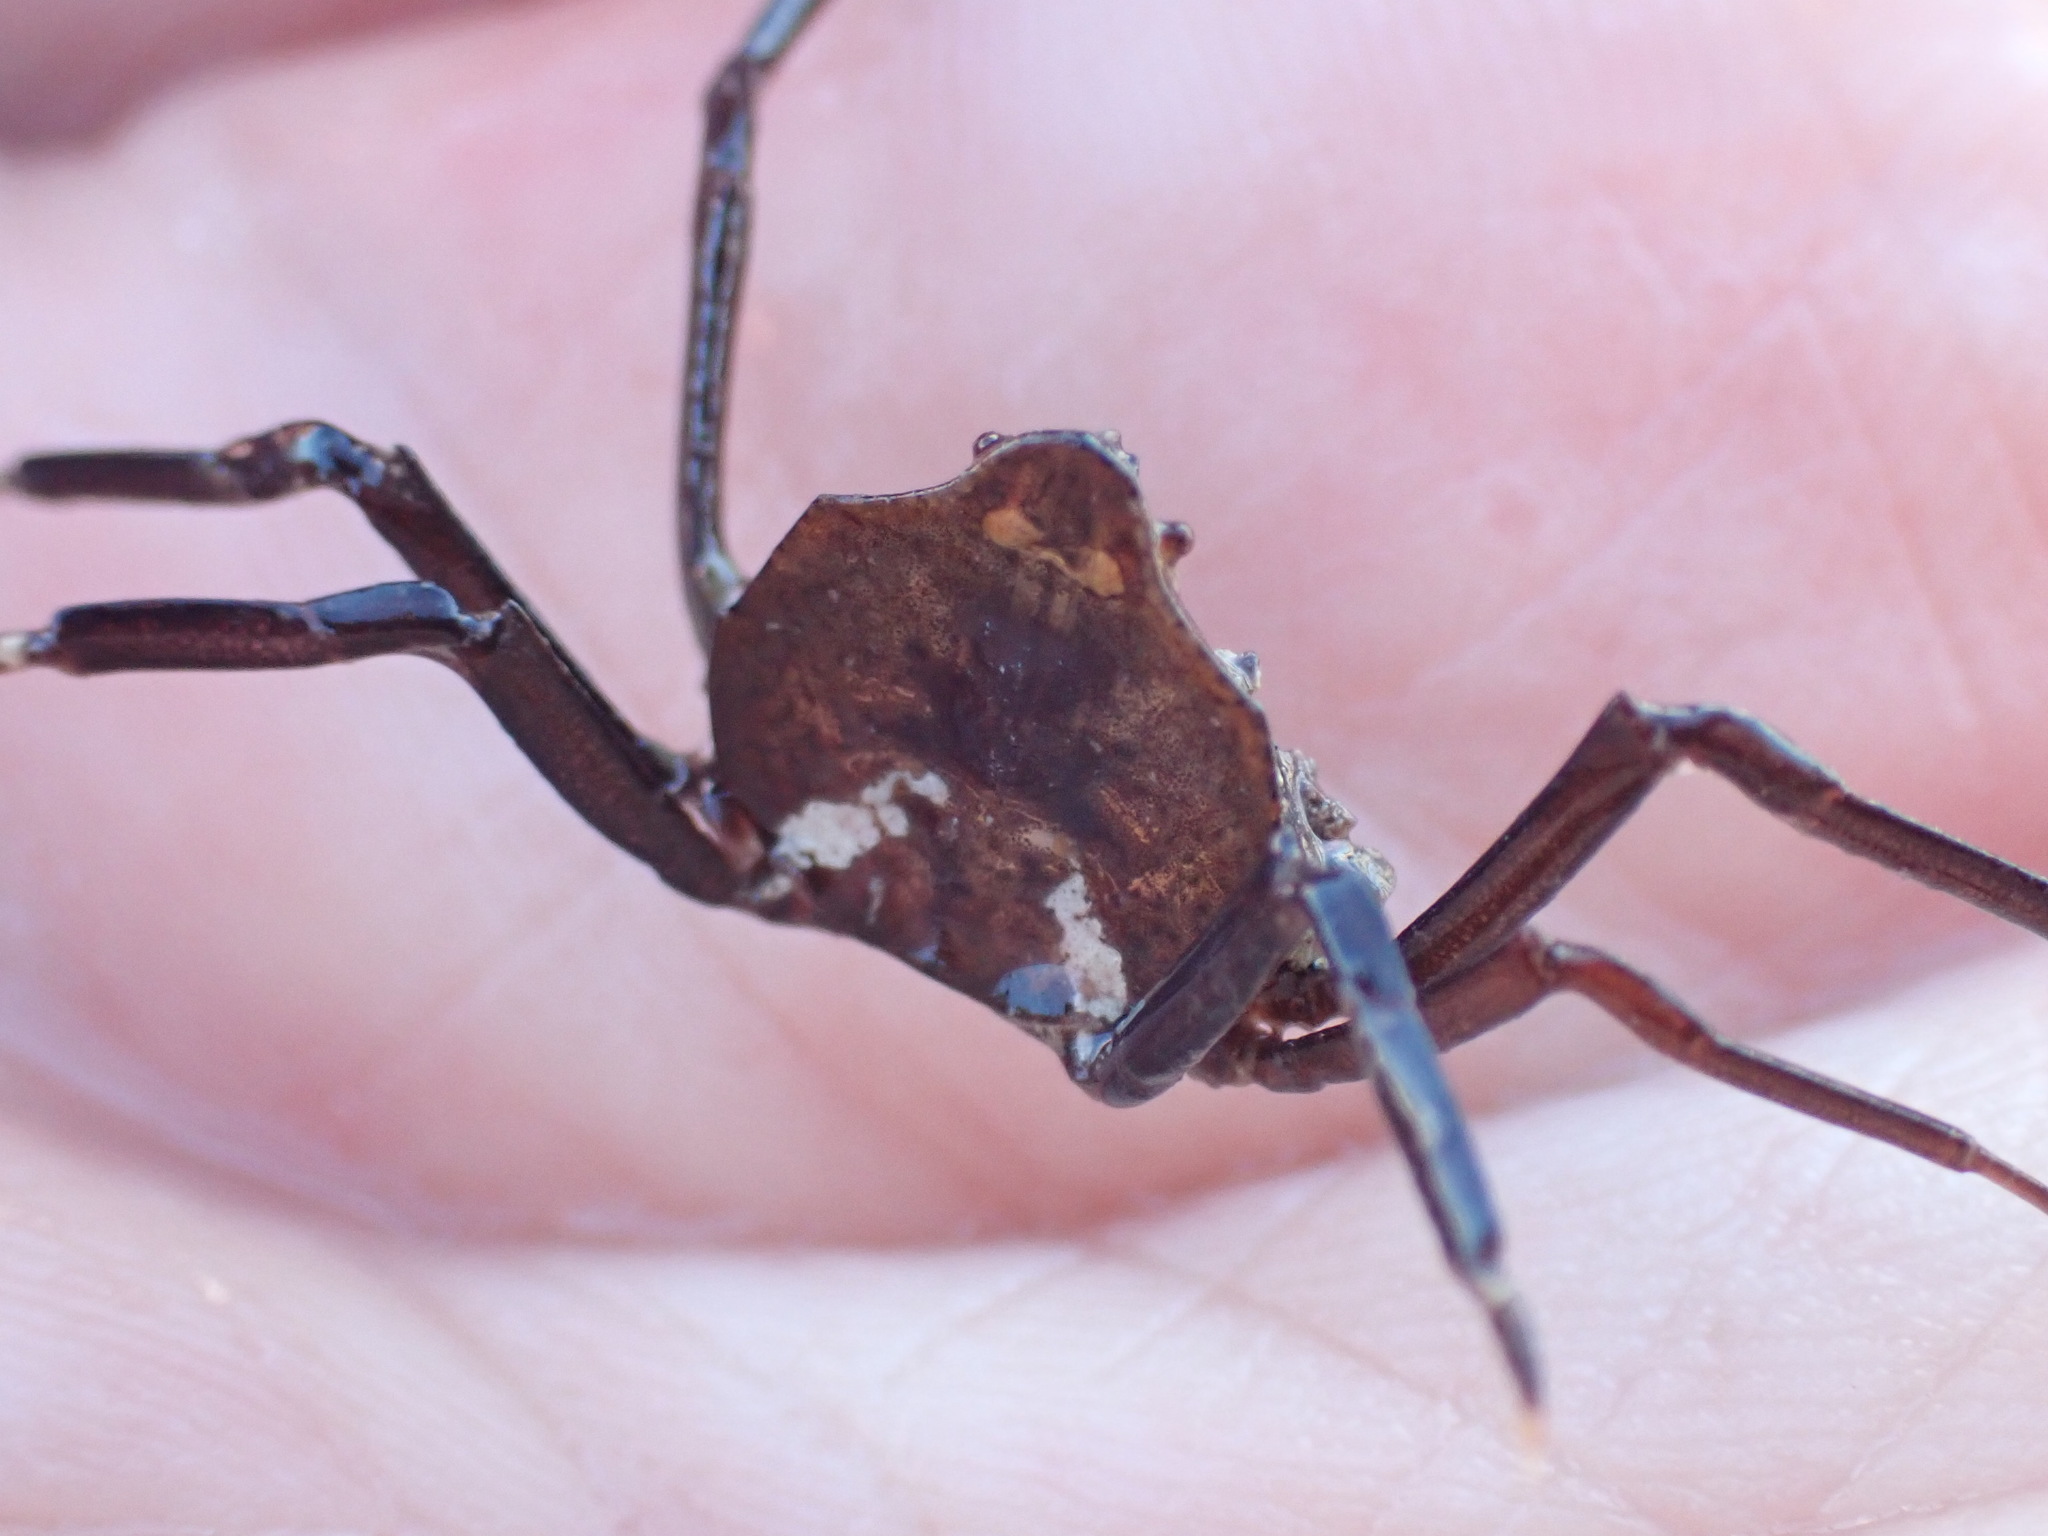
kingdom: Animalia
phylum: Arthropoda
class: Malacostraca
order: Decapoda
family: Hymenosomatidae
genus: Elamena
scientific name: Elamena producta
